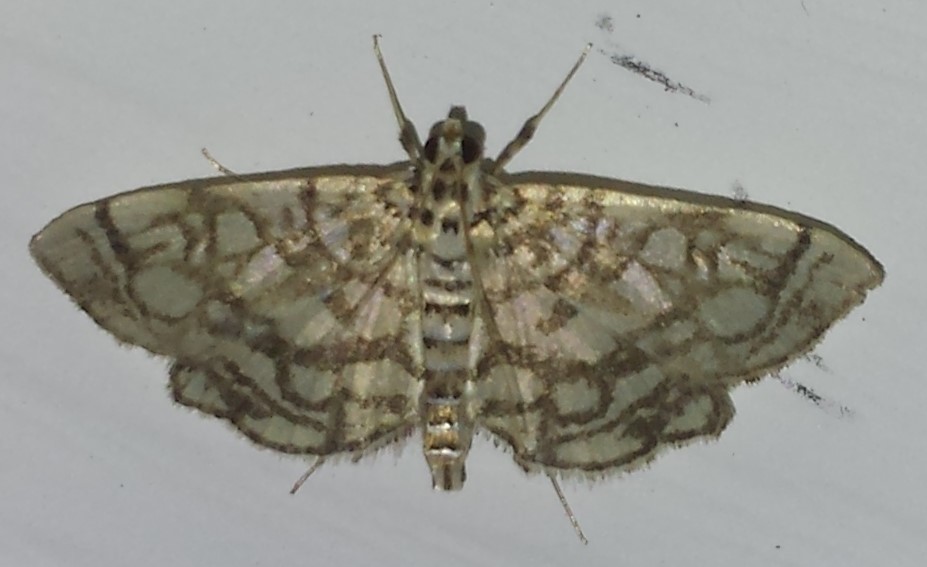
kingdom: Animalia
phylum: Arthropoda
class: Insecta
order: Lepidoptera
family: Crambidae
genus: Lygropia
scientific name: Lygropia rivulalis
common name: Bog lygropia moth
